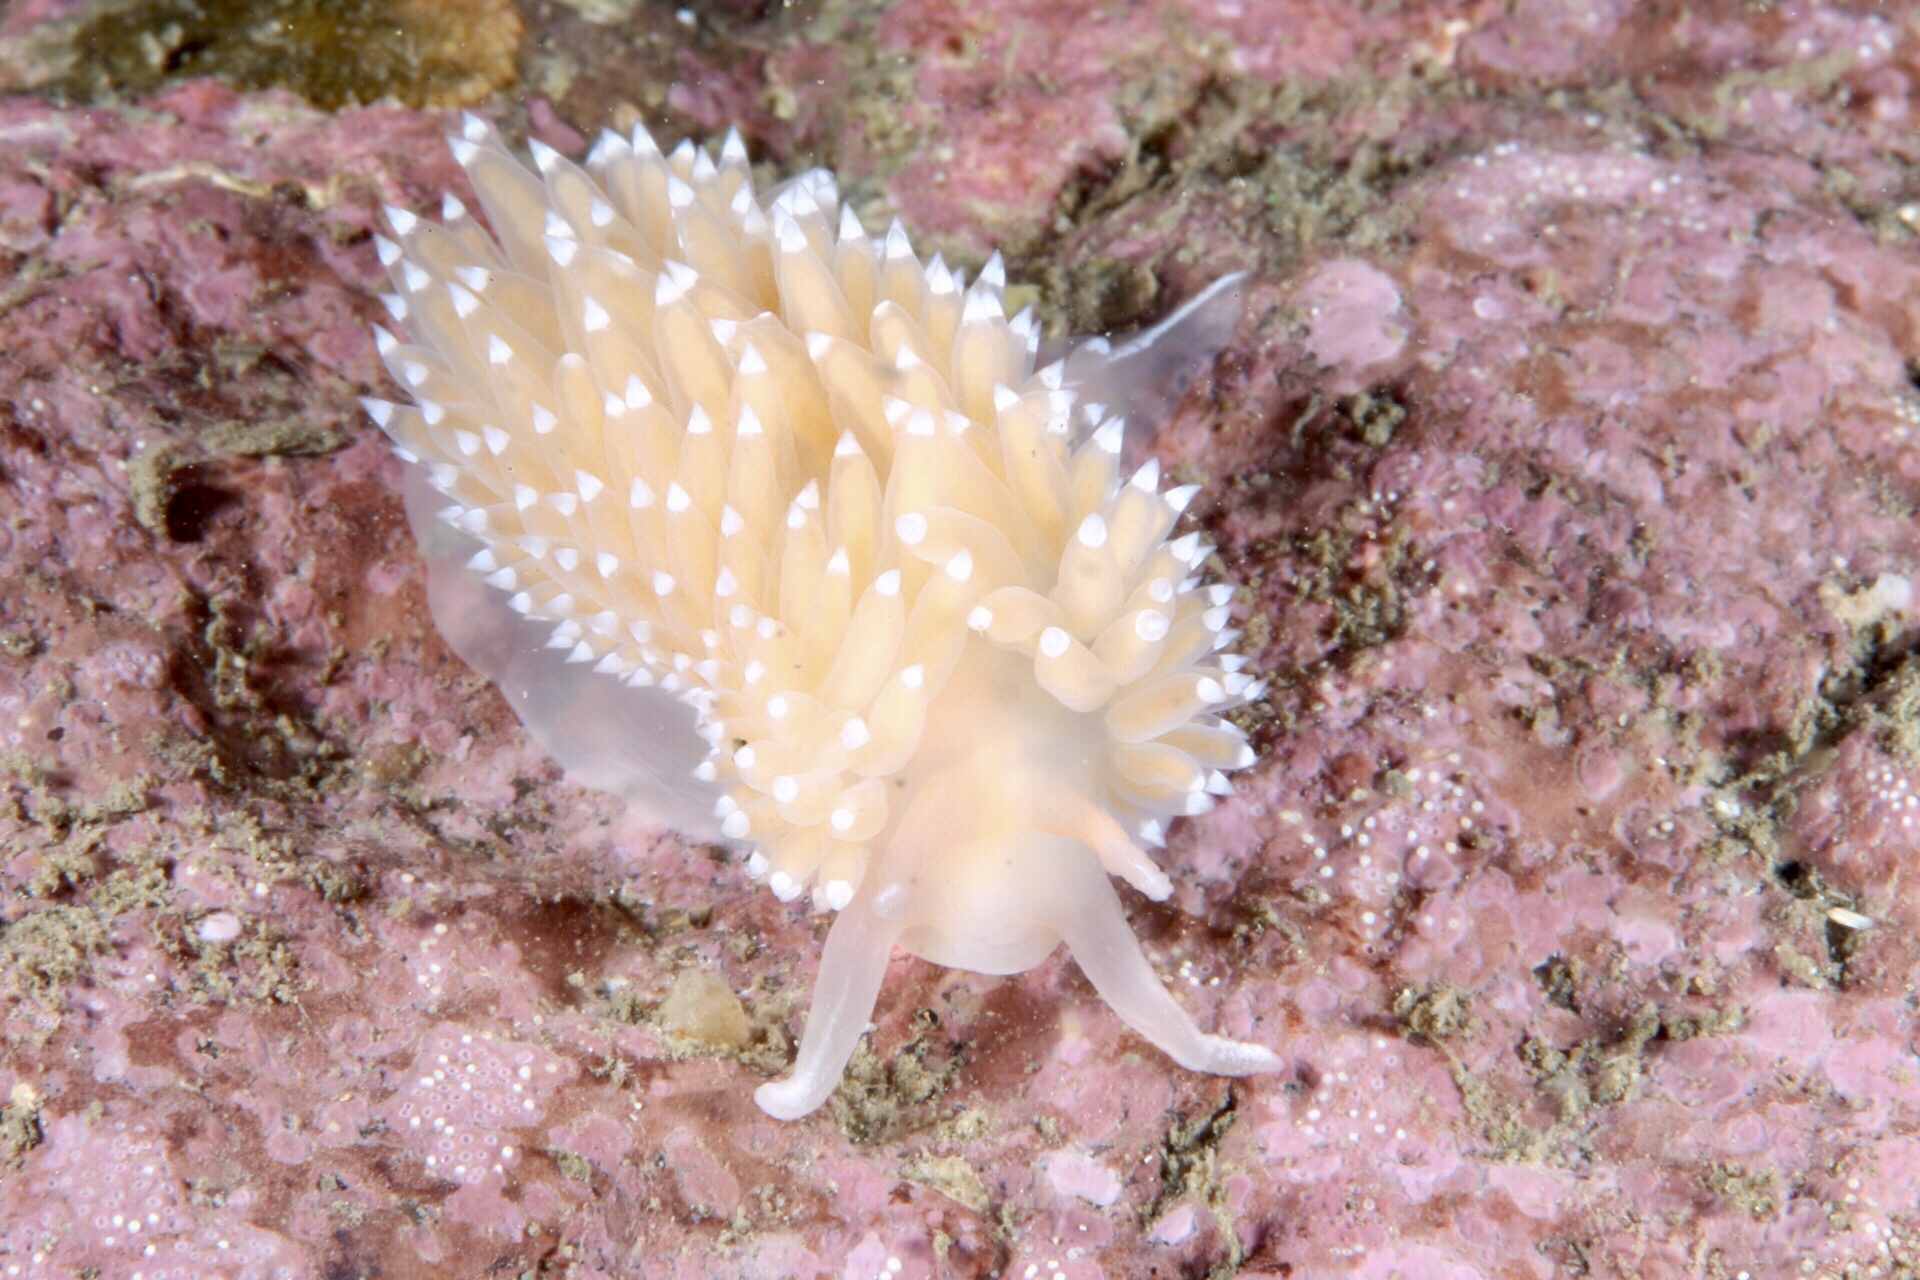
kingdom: Animalia
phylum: Mollusca
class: Gastropoda
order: Nudibranchia
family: Coryphellidae
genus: Coryphella
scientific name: Coryphella verrucosa
